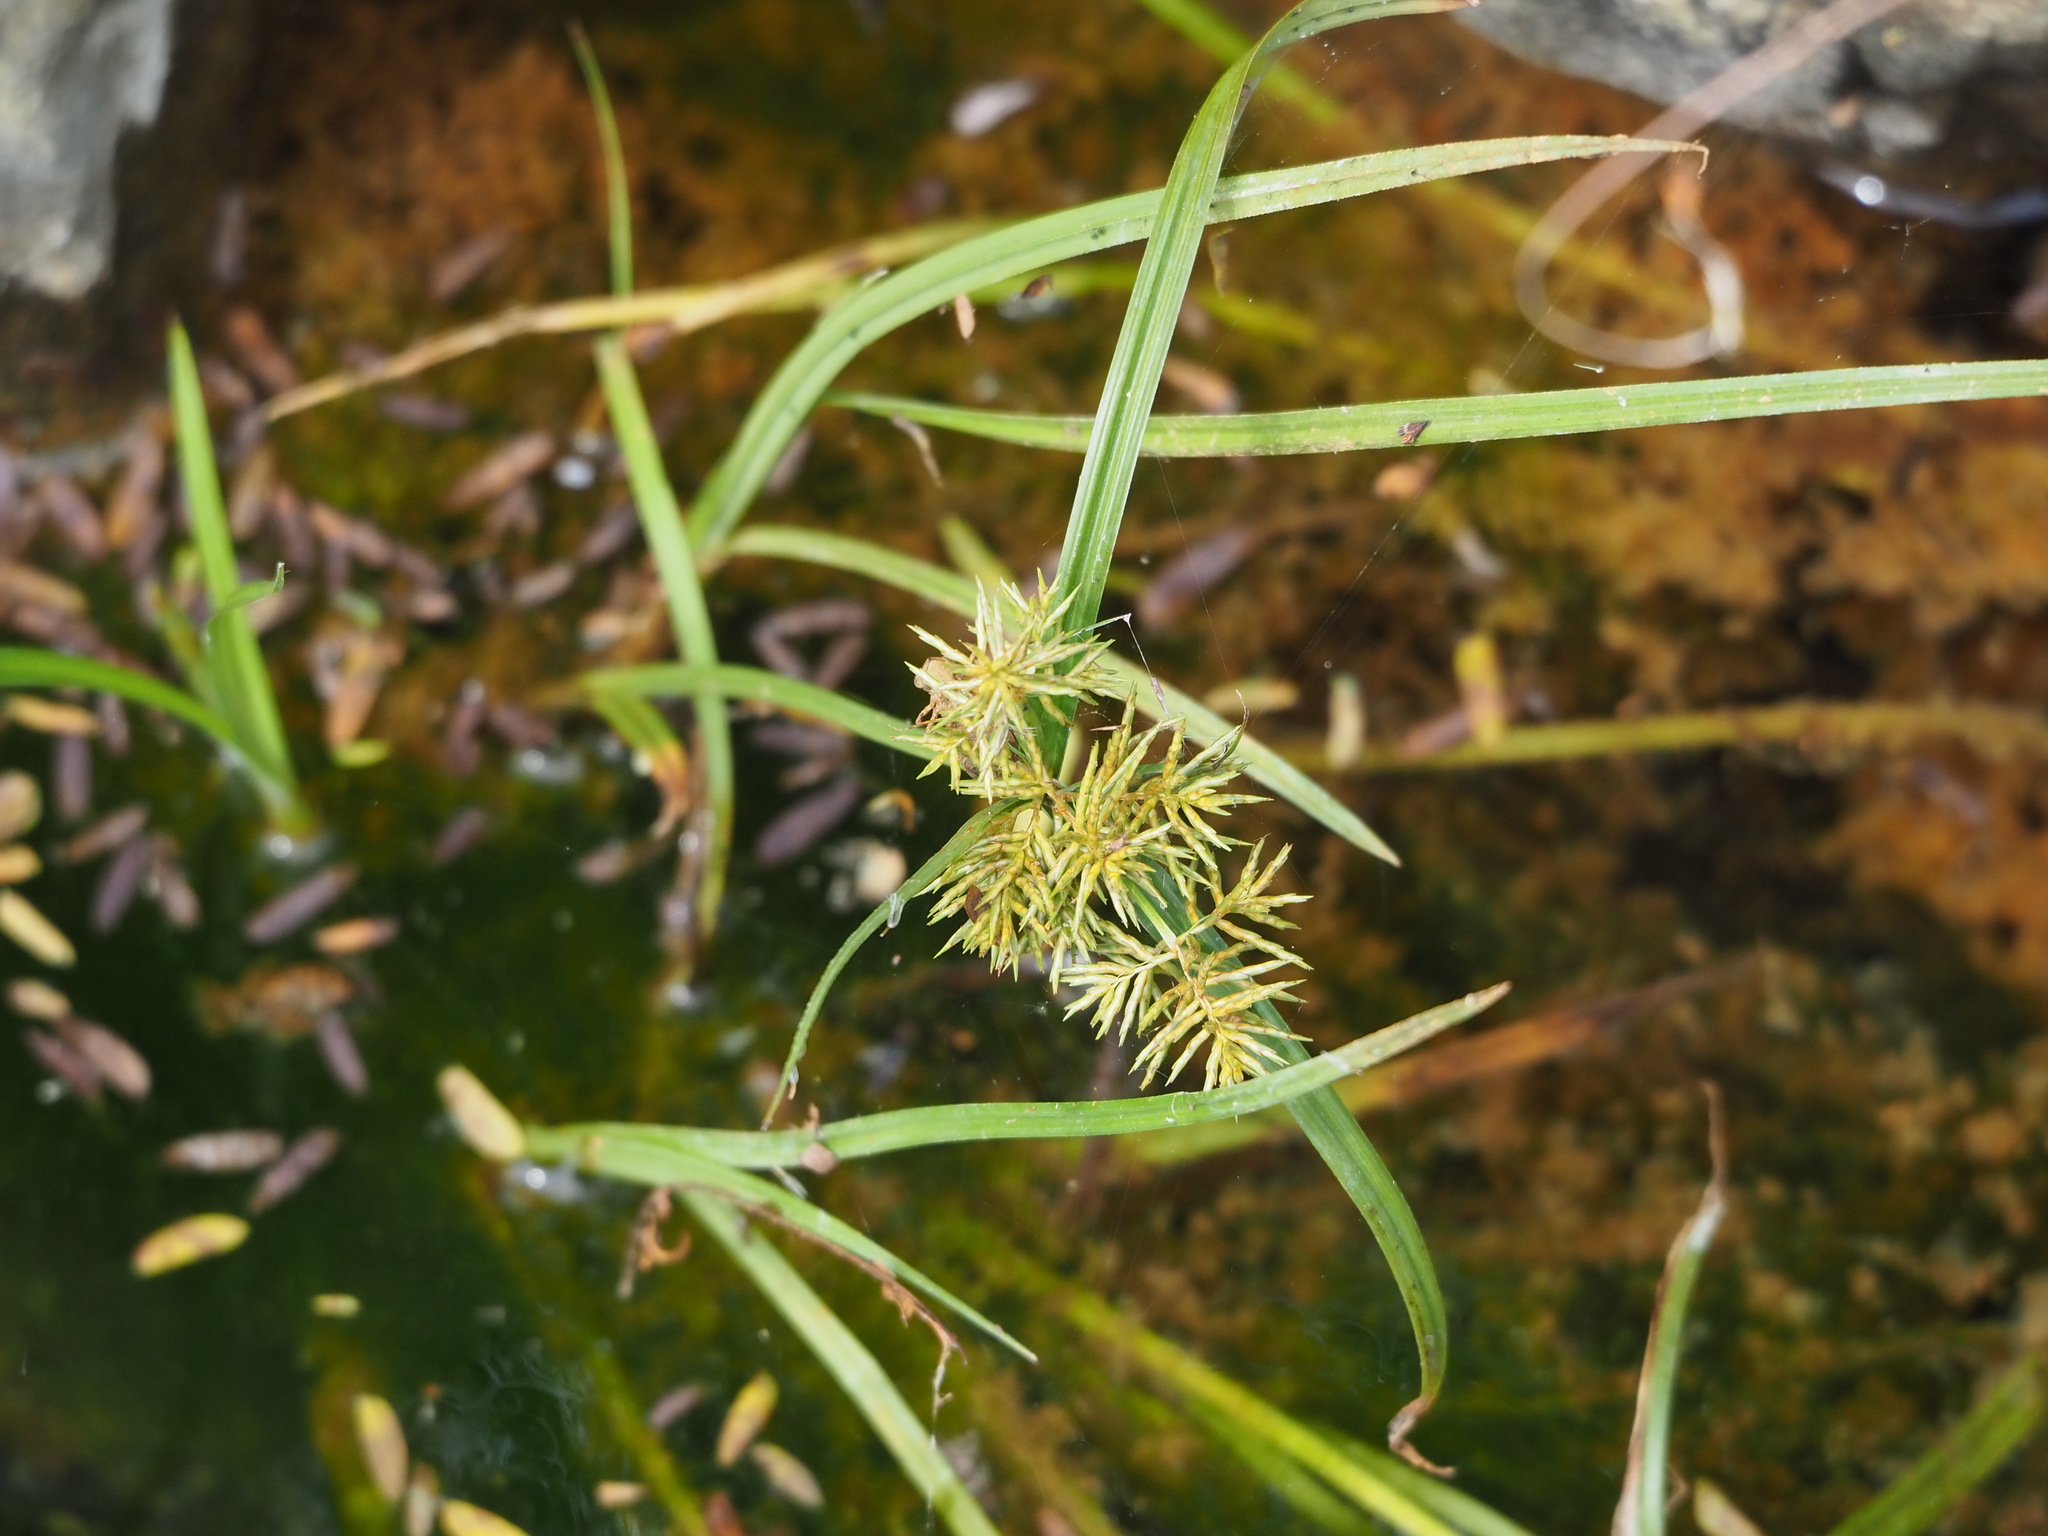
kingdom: Plantae
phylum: Tracheophyta
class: Liliopsida
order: Poales
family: Cyperaceae
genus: Cyperus
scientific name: Cyperus odoratus
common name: Fragrant flatsedge
